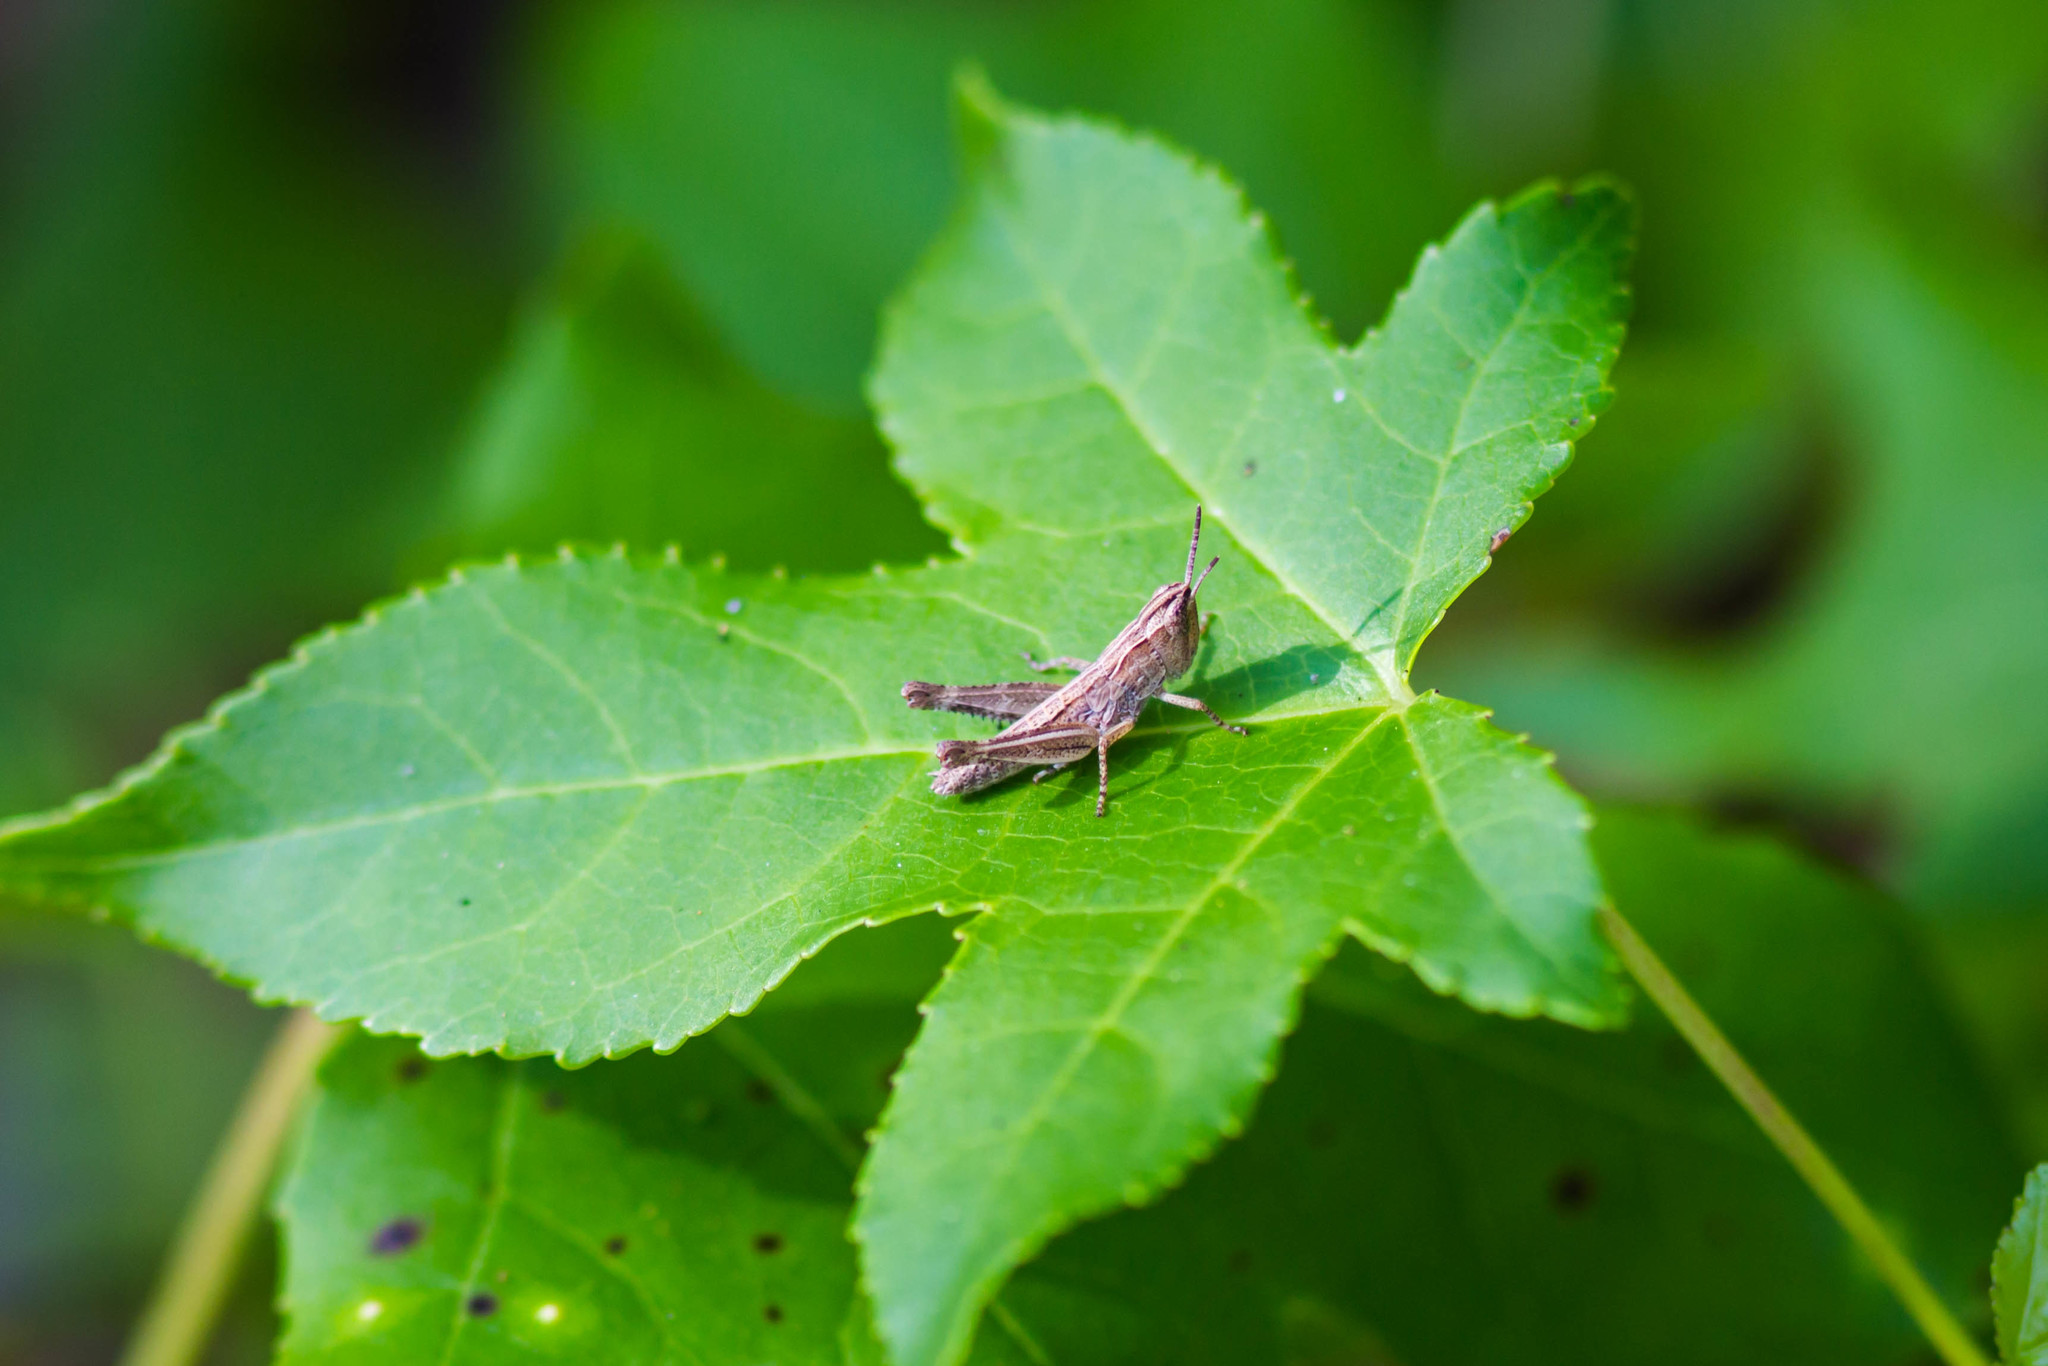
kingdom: Animalia
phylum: Arthropoda
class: Insecta
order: Orthoptera
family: Acrididae
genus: Orphulella
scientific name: Orphulella pelidna
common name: Spotted-wing grasshopper
